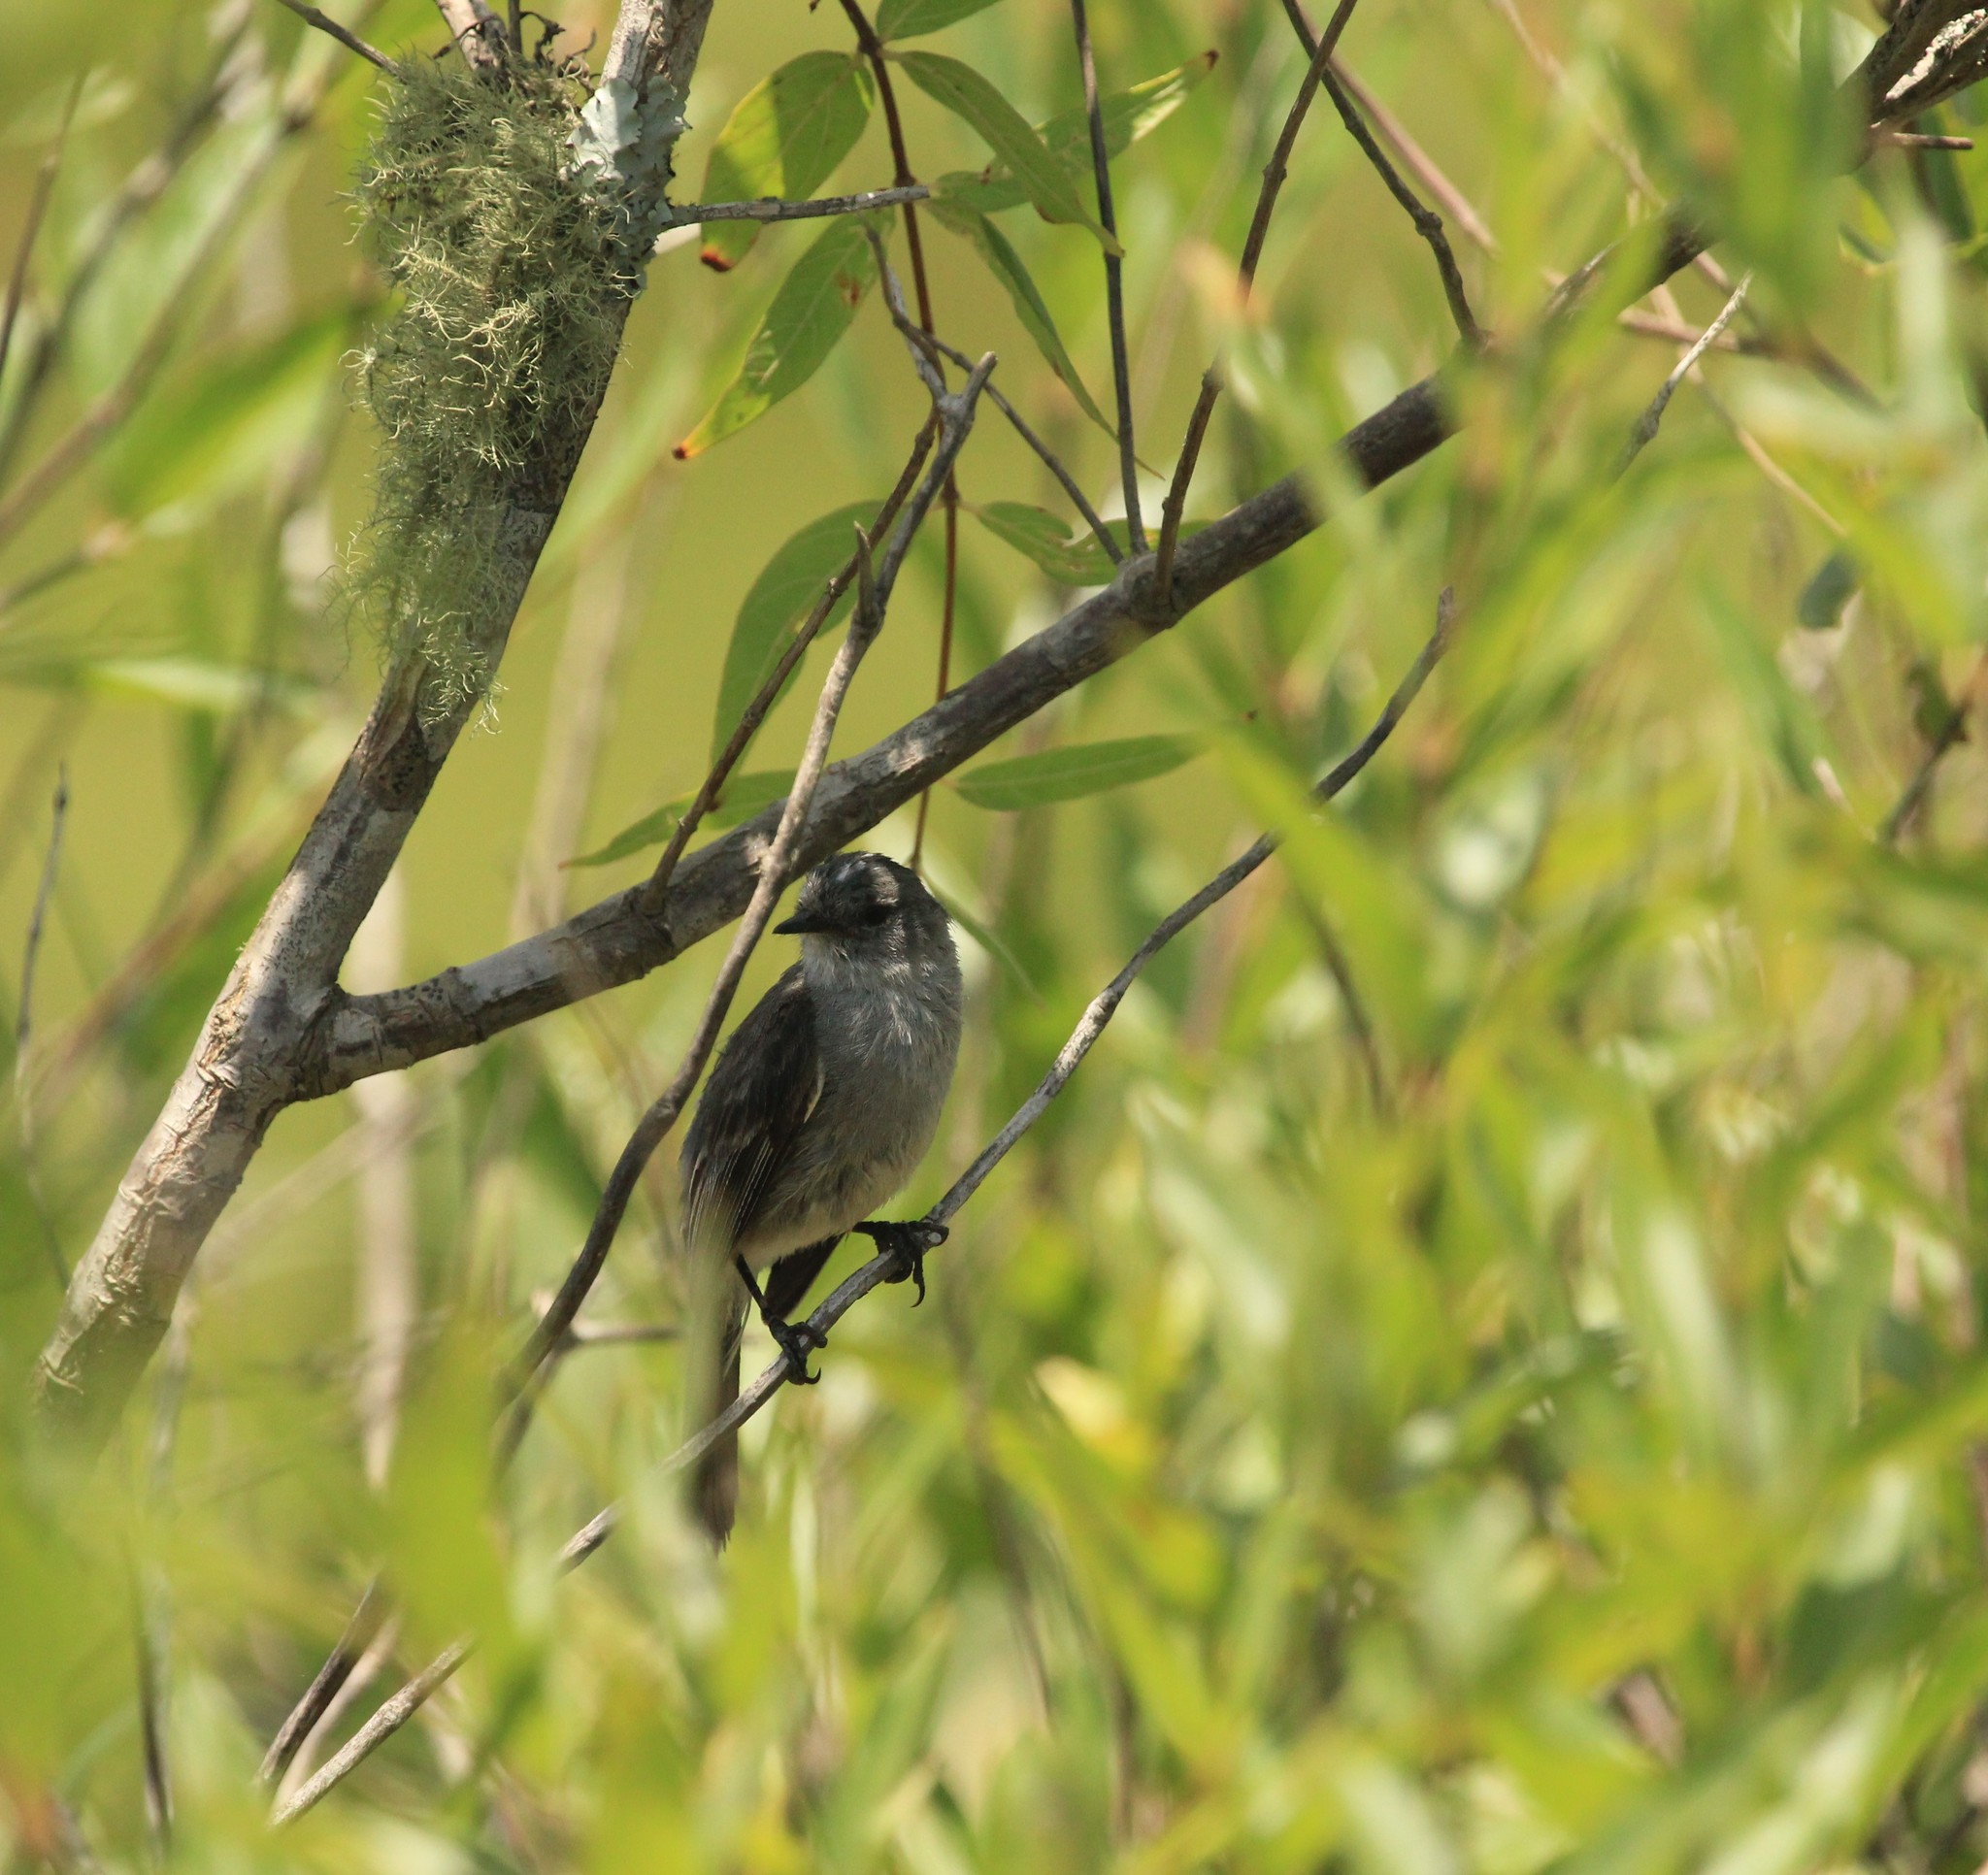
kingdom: Animalia
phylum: Chordata
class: Aves
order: Passeriformes
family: Tyrannidae
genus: Serpophaga
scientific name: Serpophaga nigricans
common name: Sooty tyrannulet
